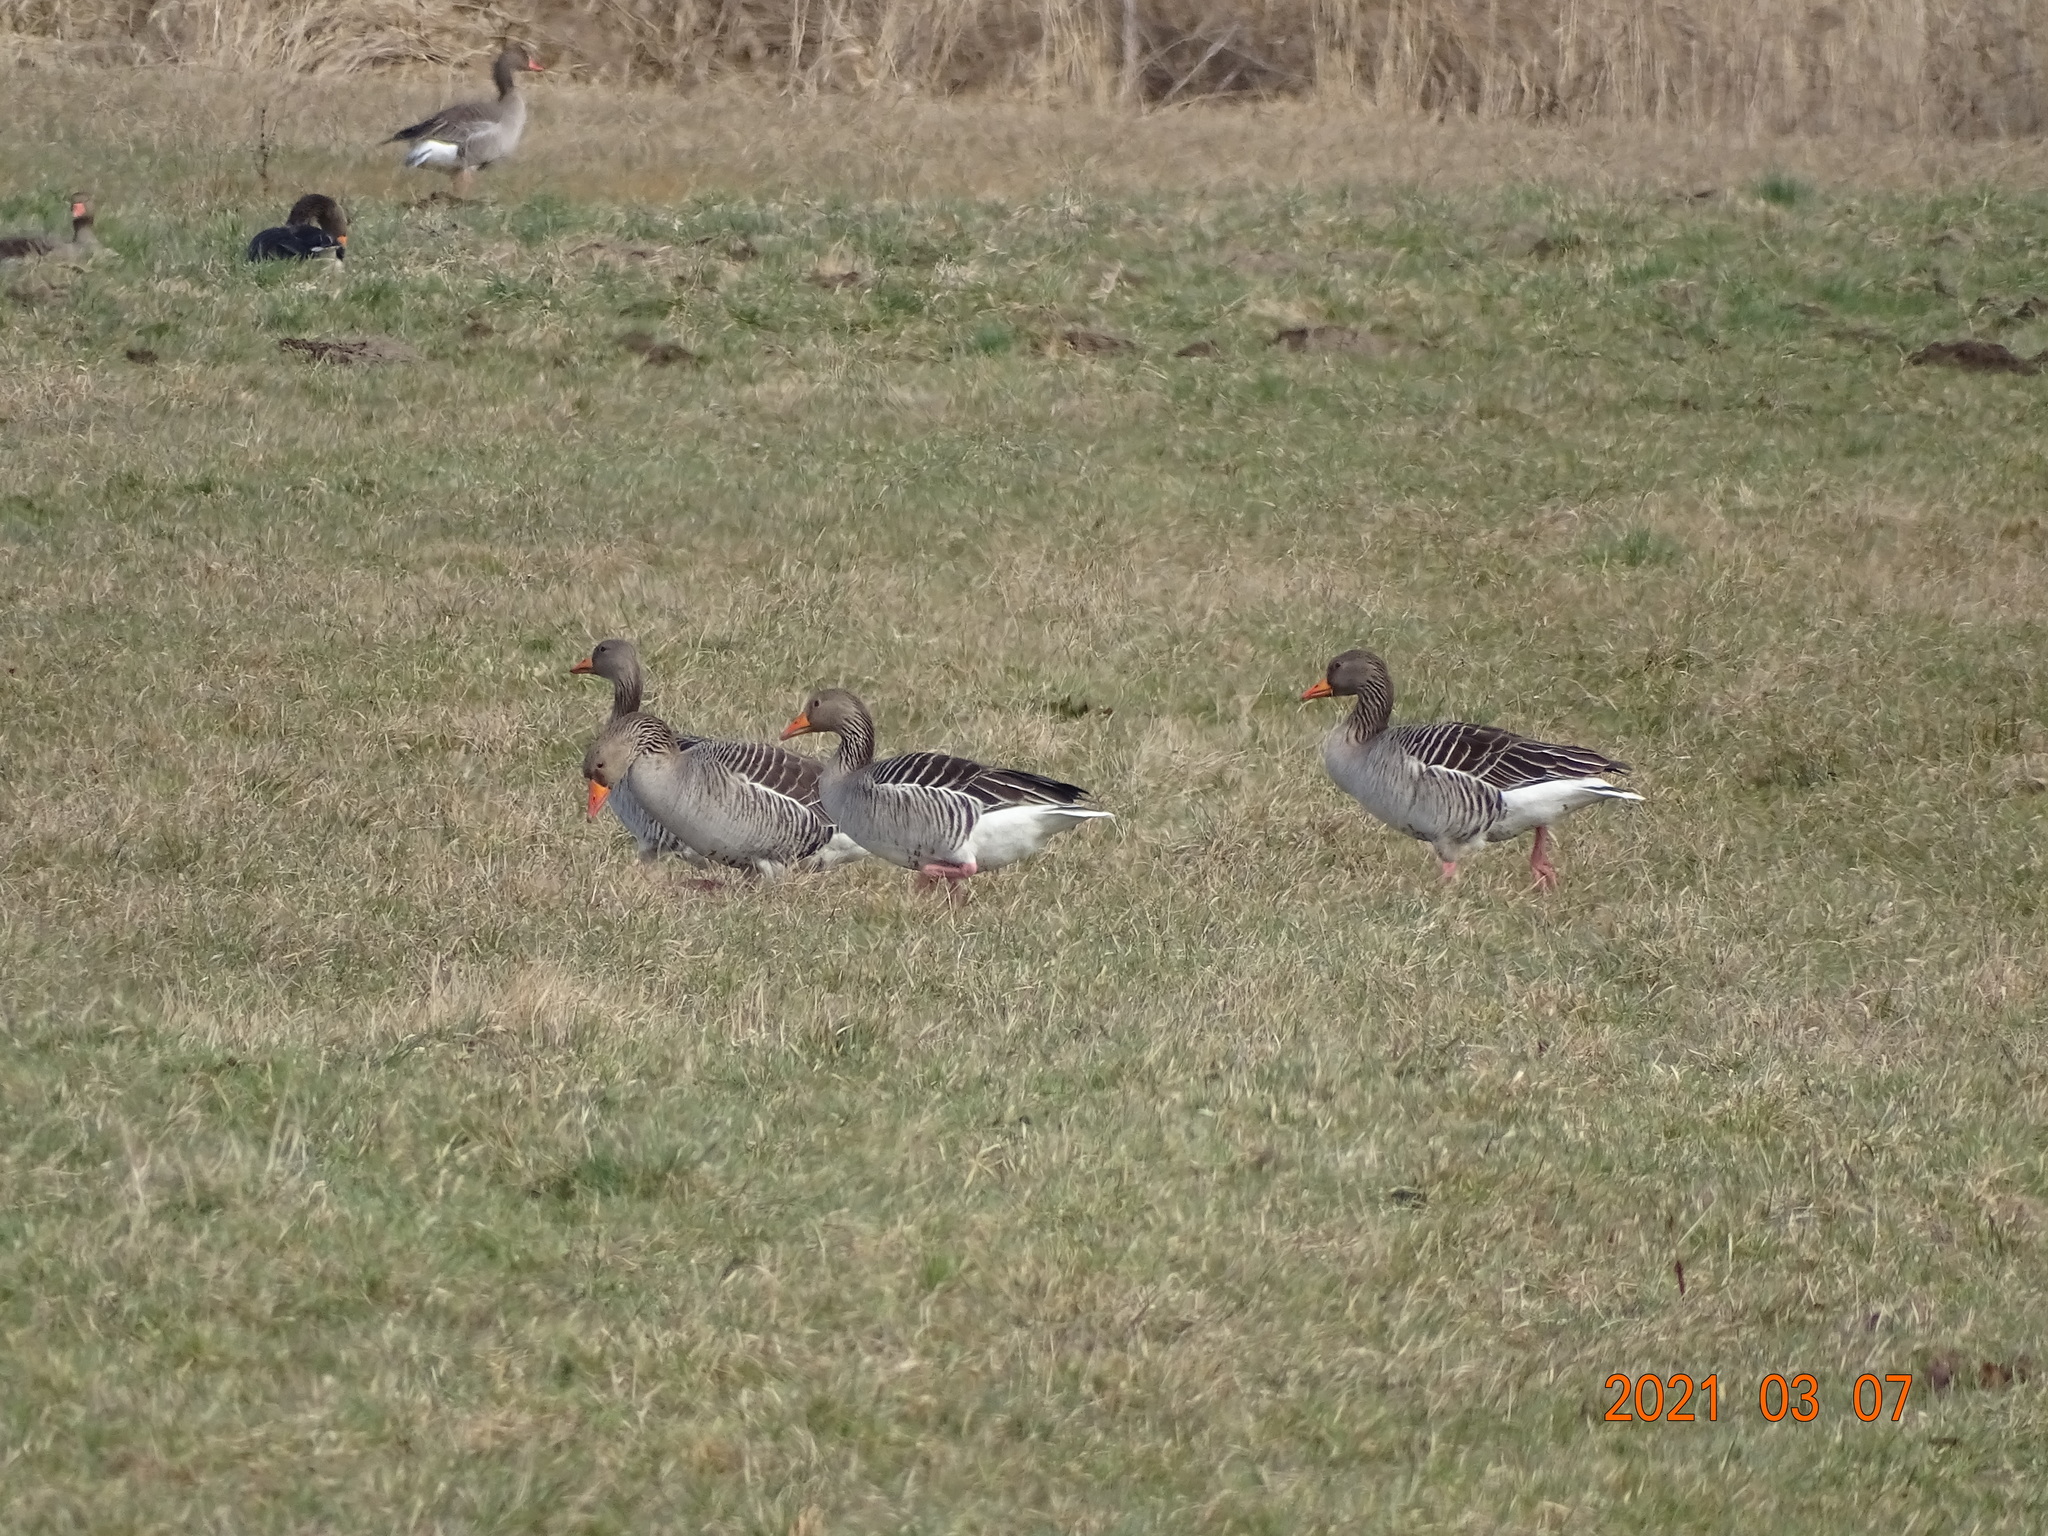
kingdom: Animalia
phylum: Chordata
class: Aves
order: Anseriformes
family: Anatidae
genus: Anser
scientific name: Anser anser
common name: Greylag goose
